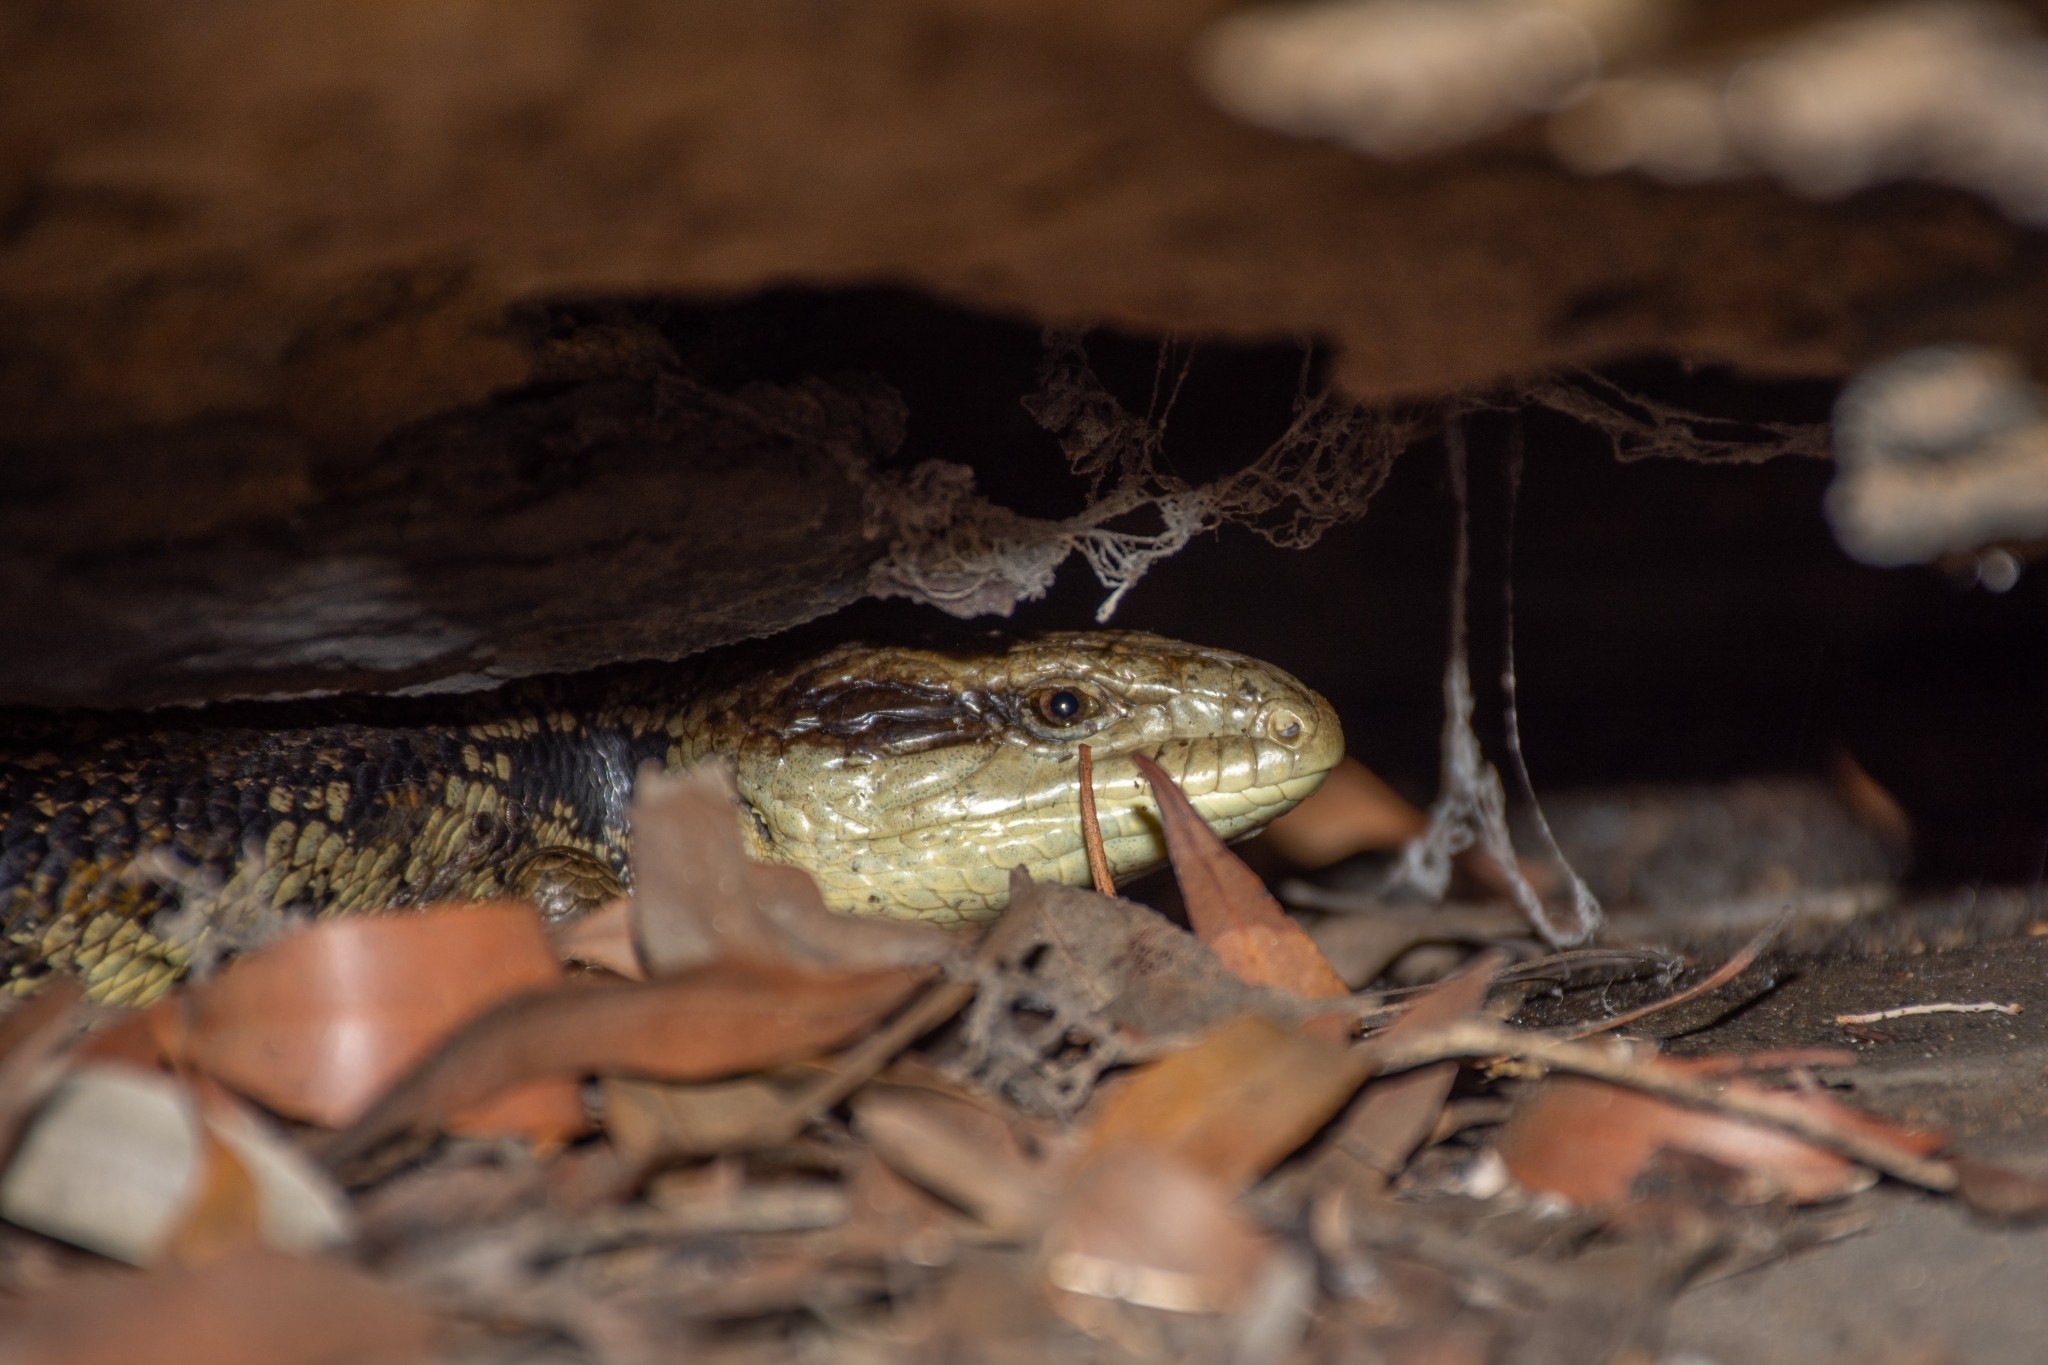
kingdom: Animalia
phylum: Chordata
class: Squamata
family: Scincidae
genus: Tiliqua
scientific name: Tiliqua scincoides
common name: Common bluetongue
